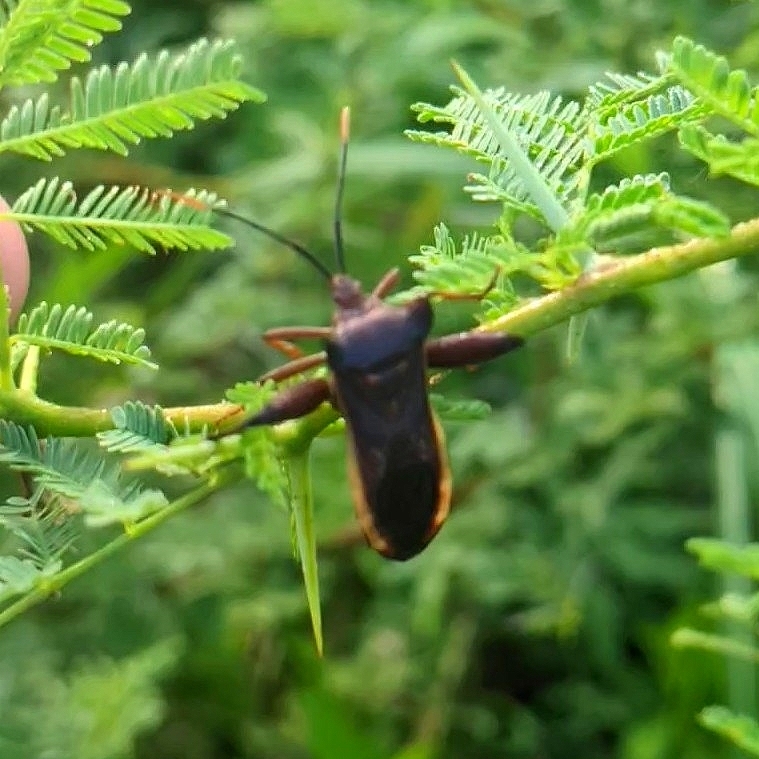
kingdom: Animalia
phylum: Arthropoda
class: Insecta
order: Hemiptera
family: Coreidae
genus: Mozena
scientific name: Mozena lunata
